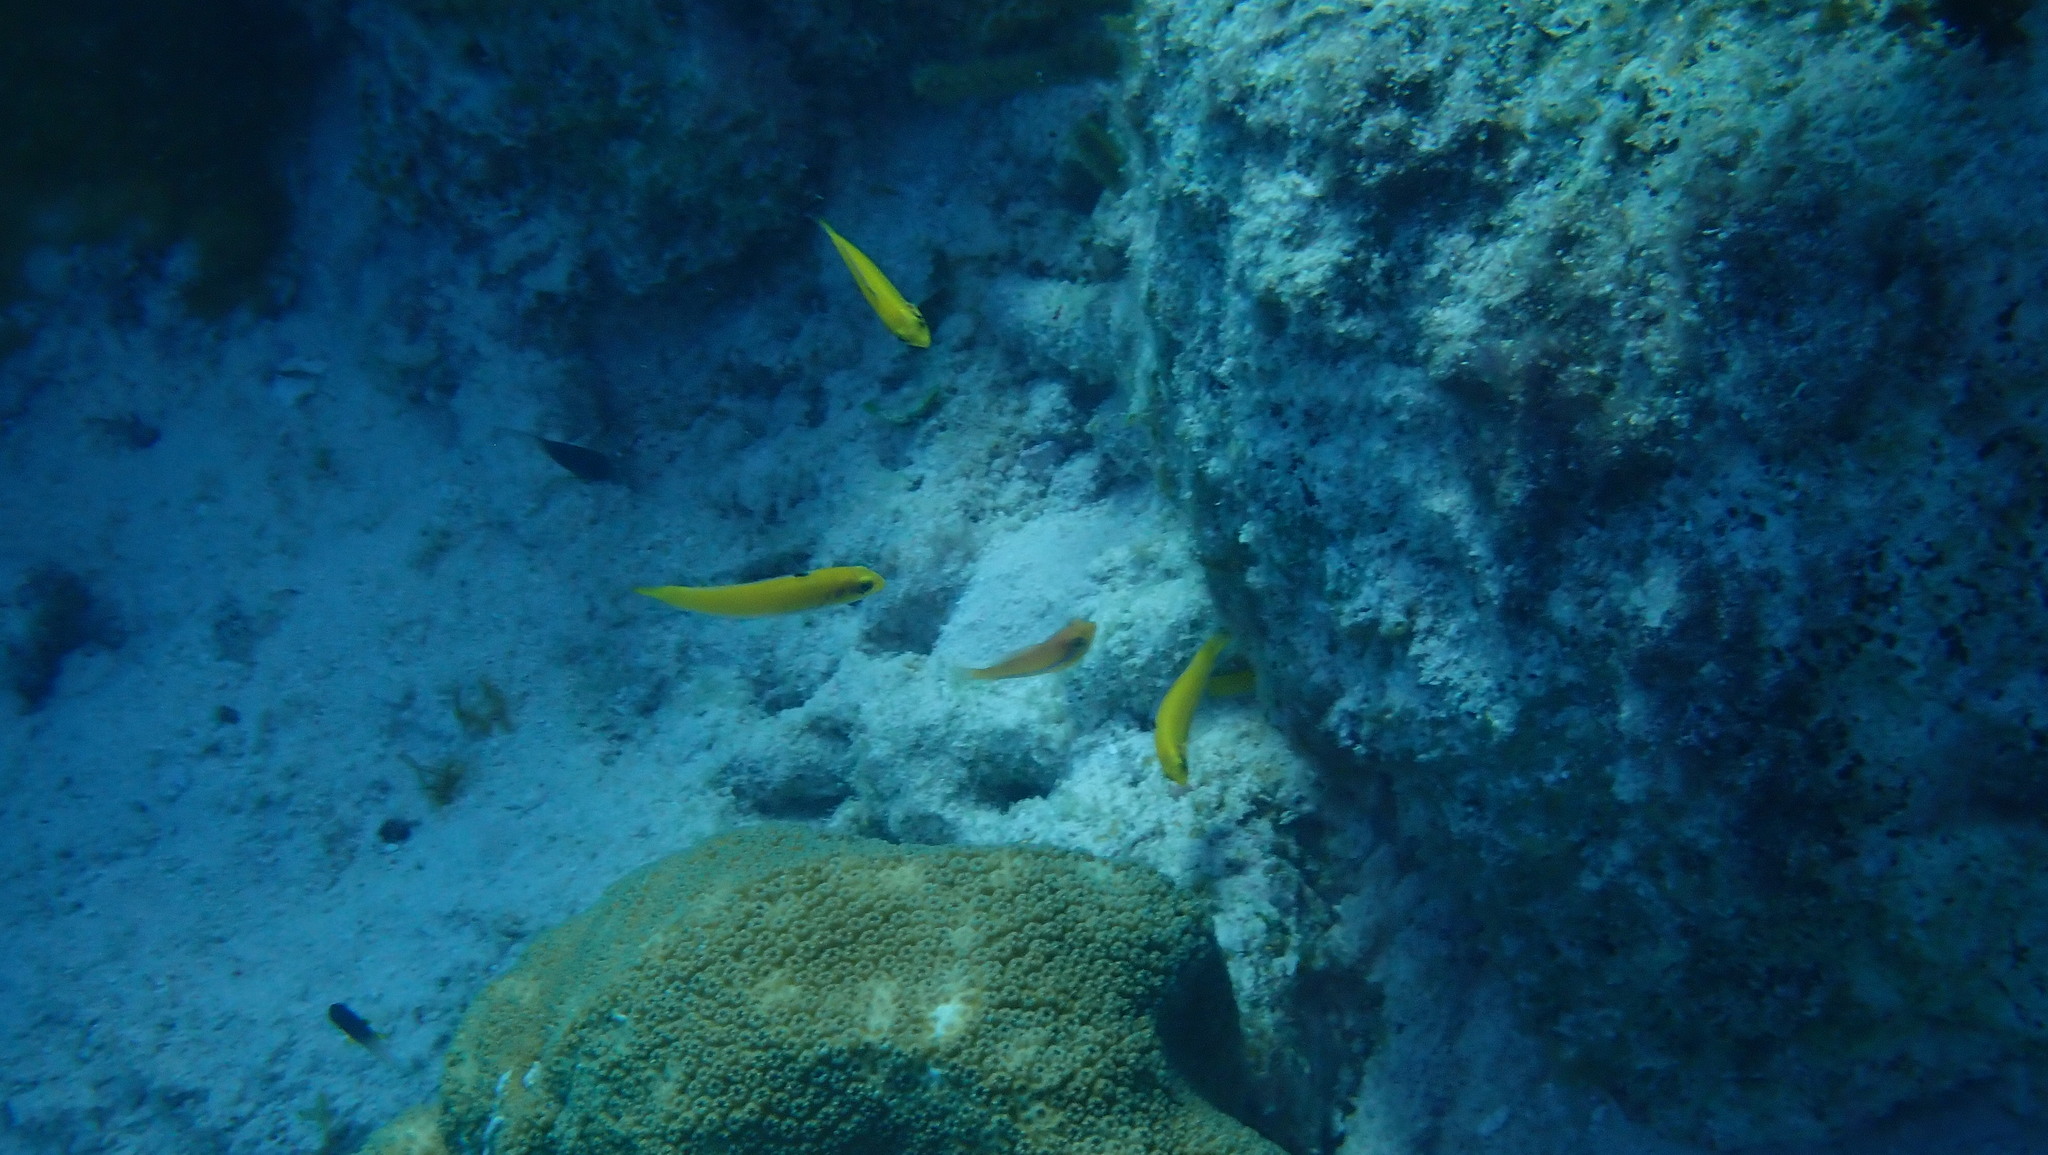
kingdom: Animalia
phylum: Chordata
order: Perciformes
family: Labridae
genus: Thalassoma
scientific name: Thalassoma bifasciatum
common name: Bluehead wrasse
